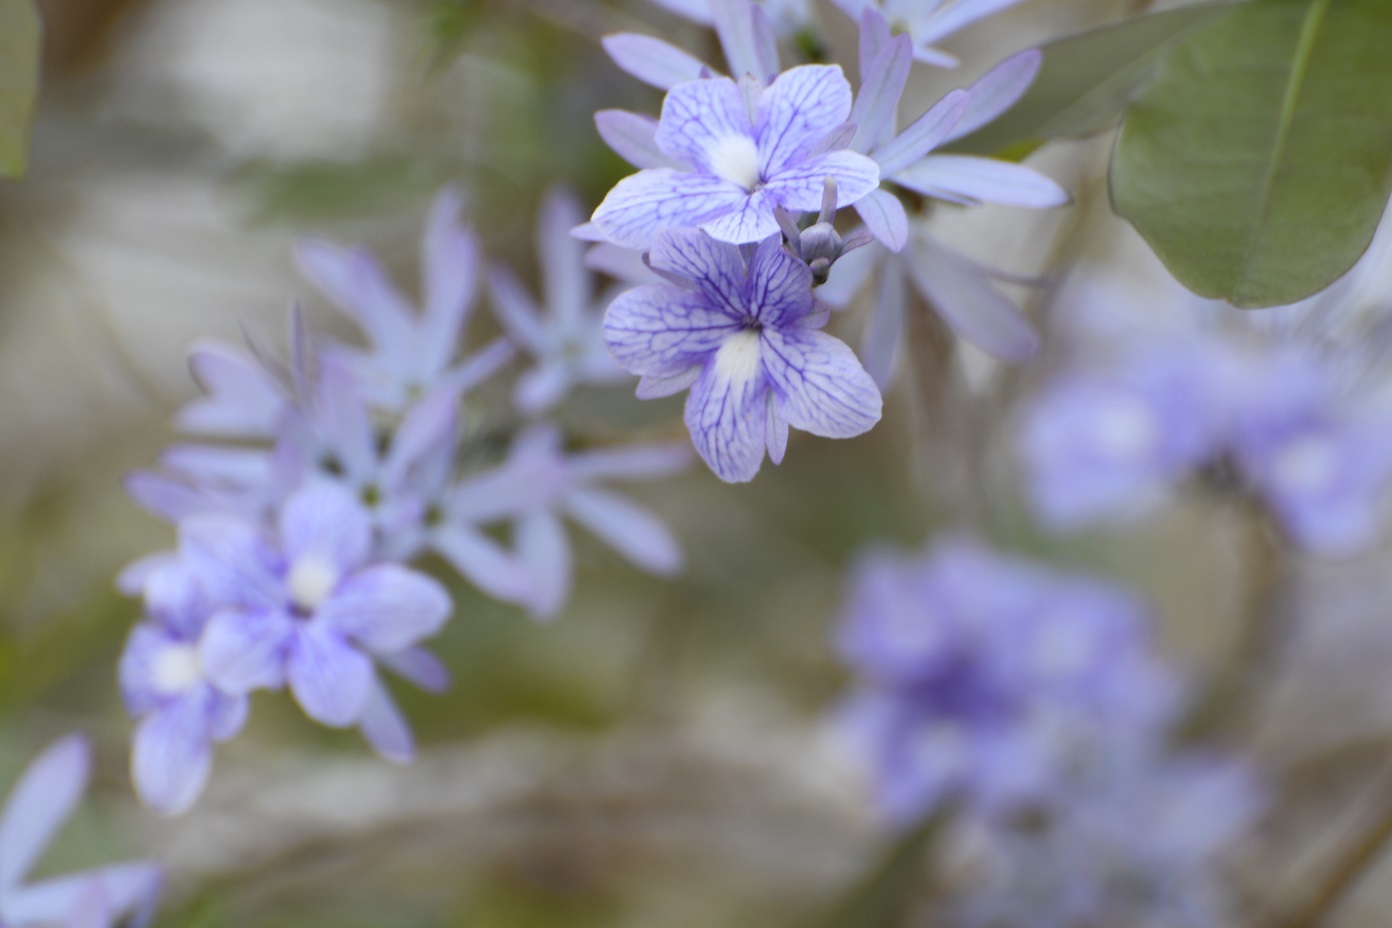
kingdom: Plantae
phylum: Tracheophyta
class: Magnoliopsida
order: Lamiales
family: Verbenaceae
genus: Petrea
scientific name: Petrea volubilis
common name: Queen's-wreath
